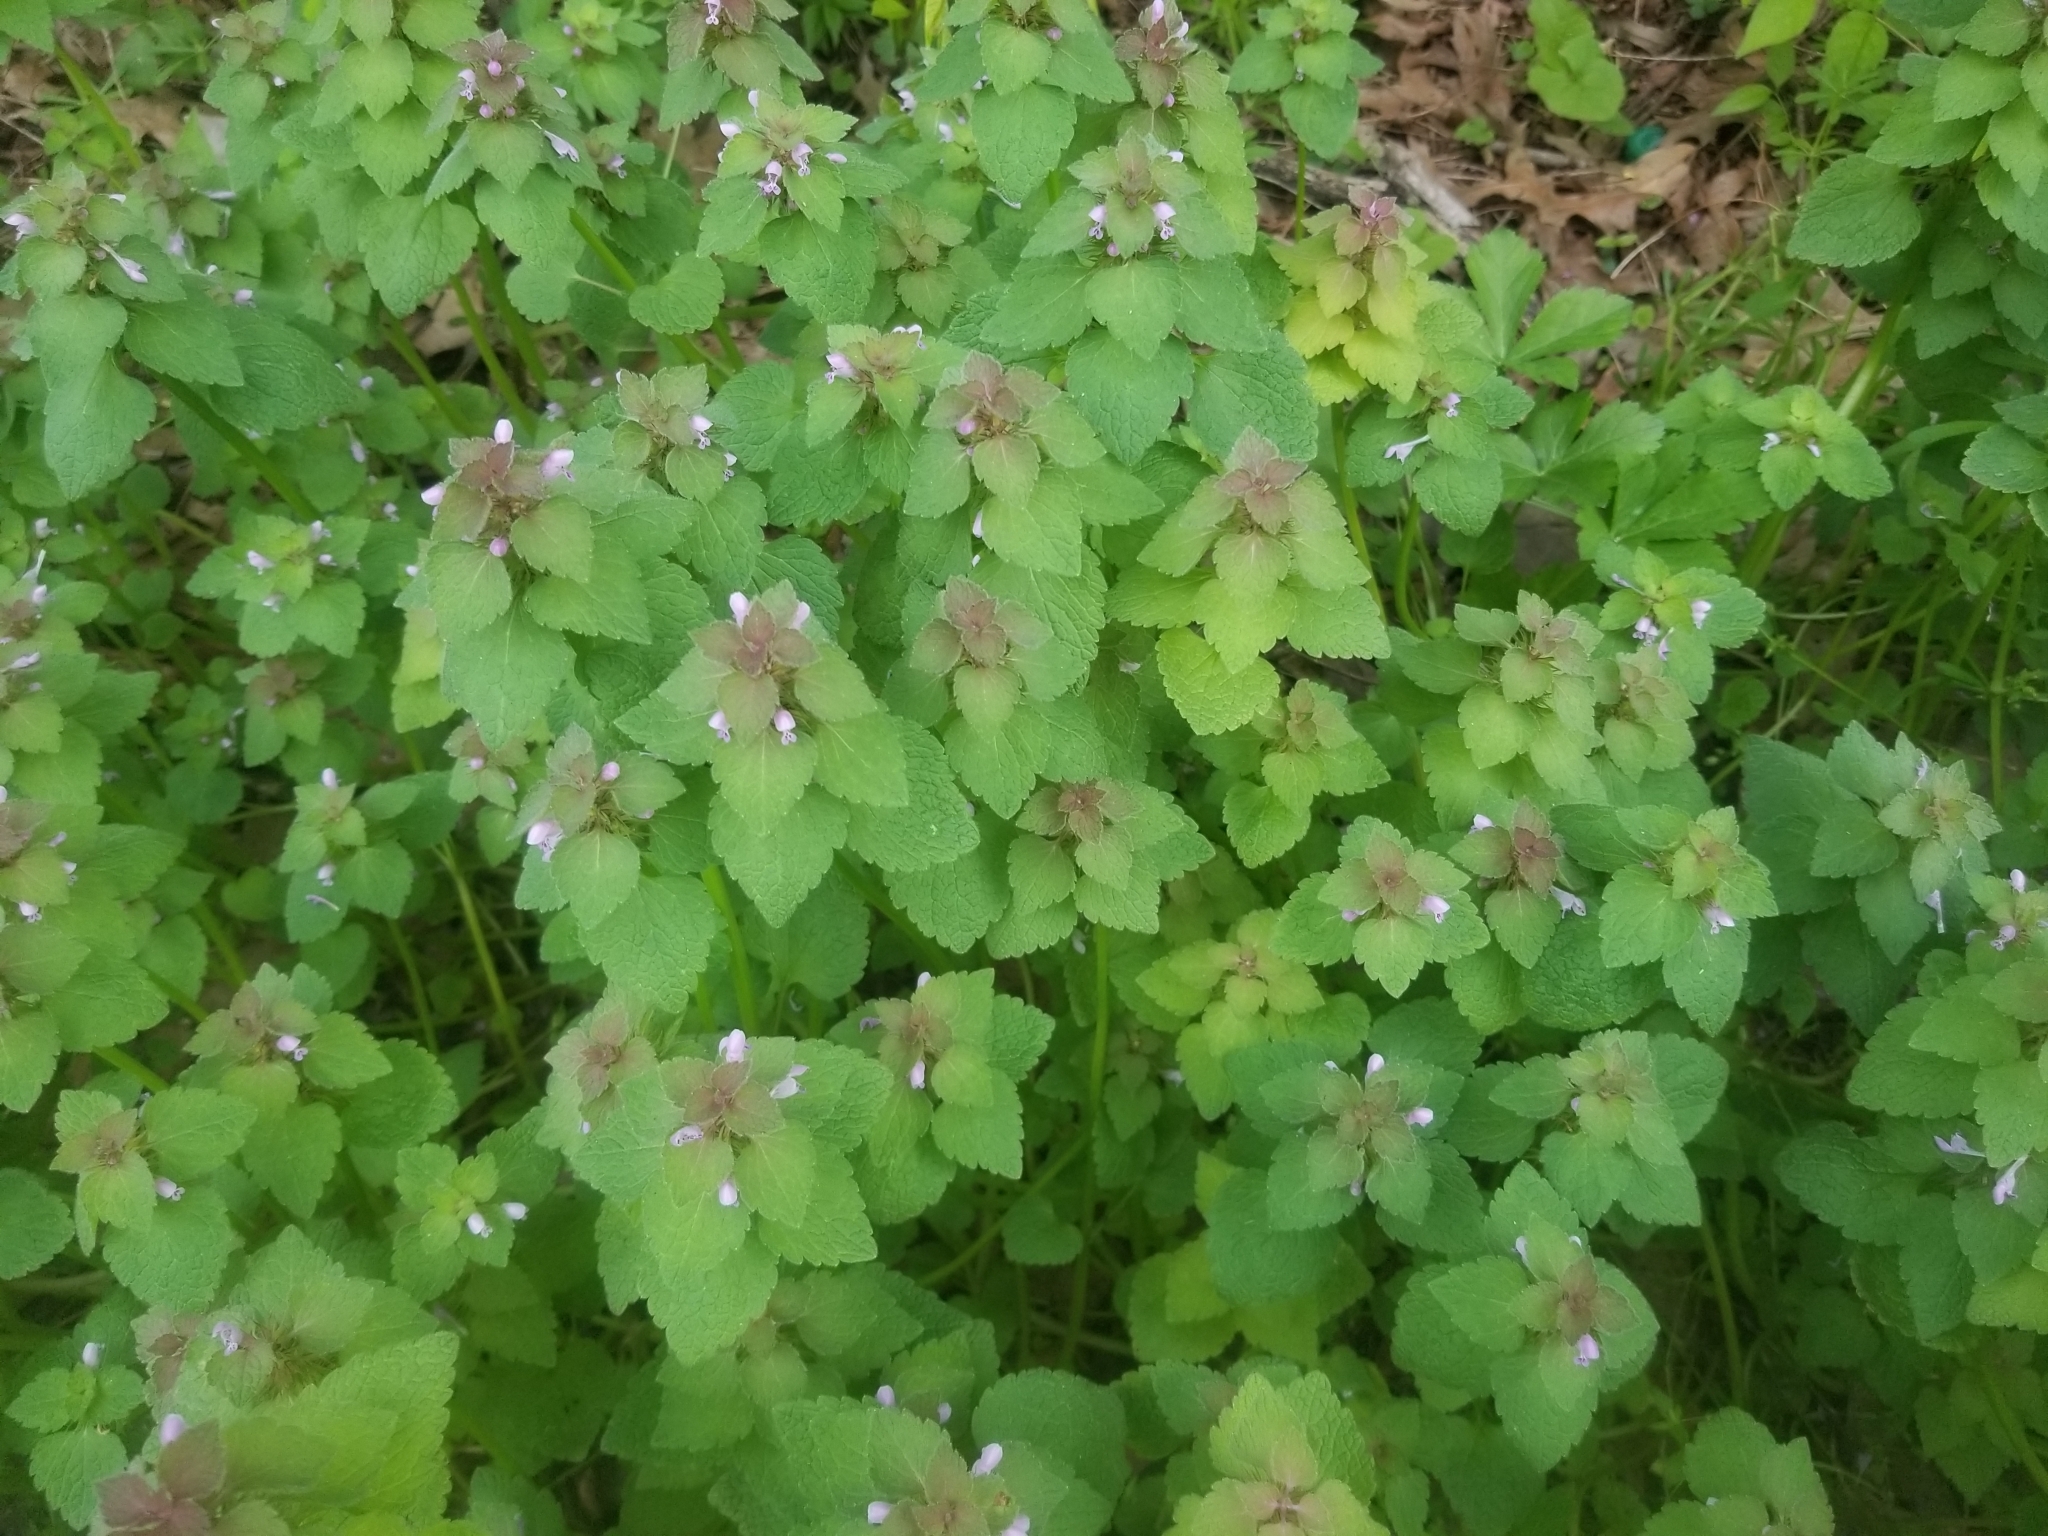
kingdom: Plantae
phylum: Tracheophyta
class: Magnoliopsida
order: Lamiales
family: Lamiaceae
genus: Lamium
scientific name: Lamium purpureum
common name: Red dead-nettle
